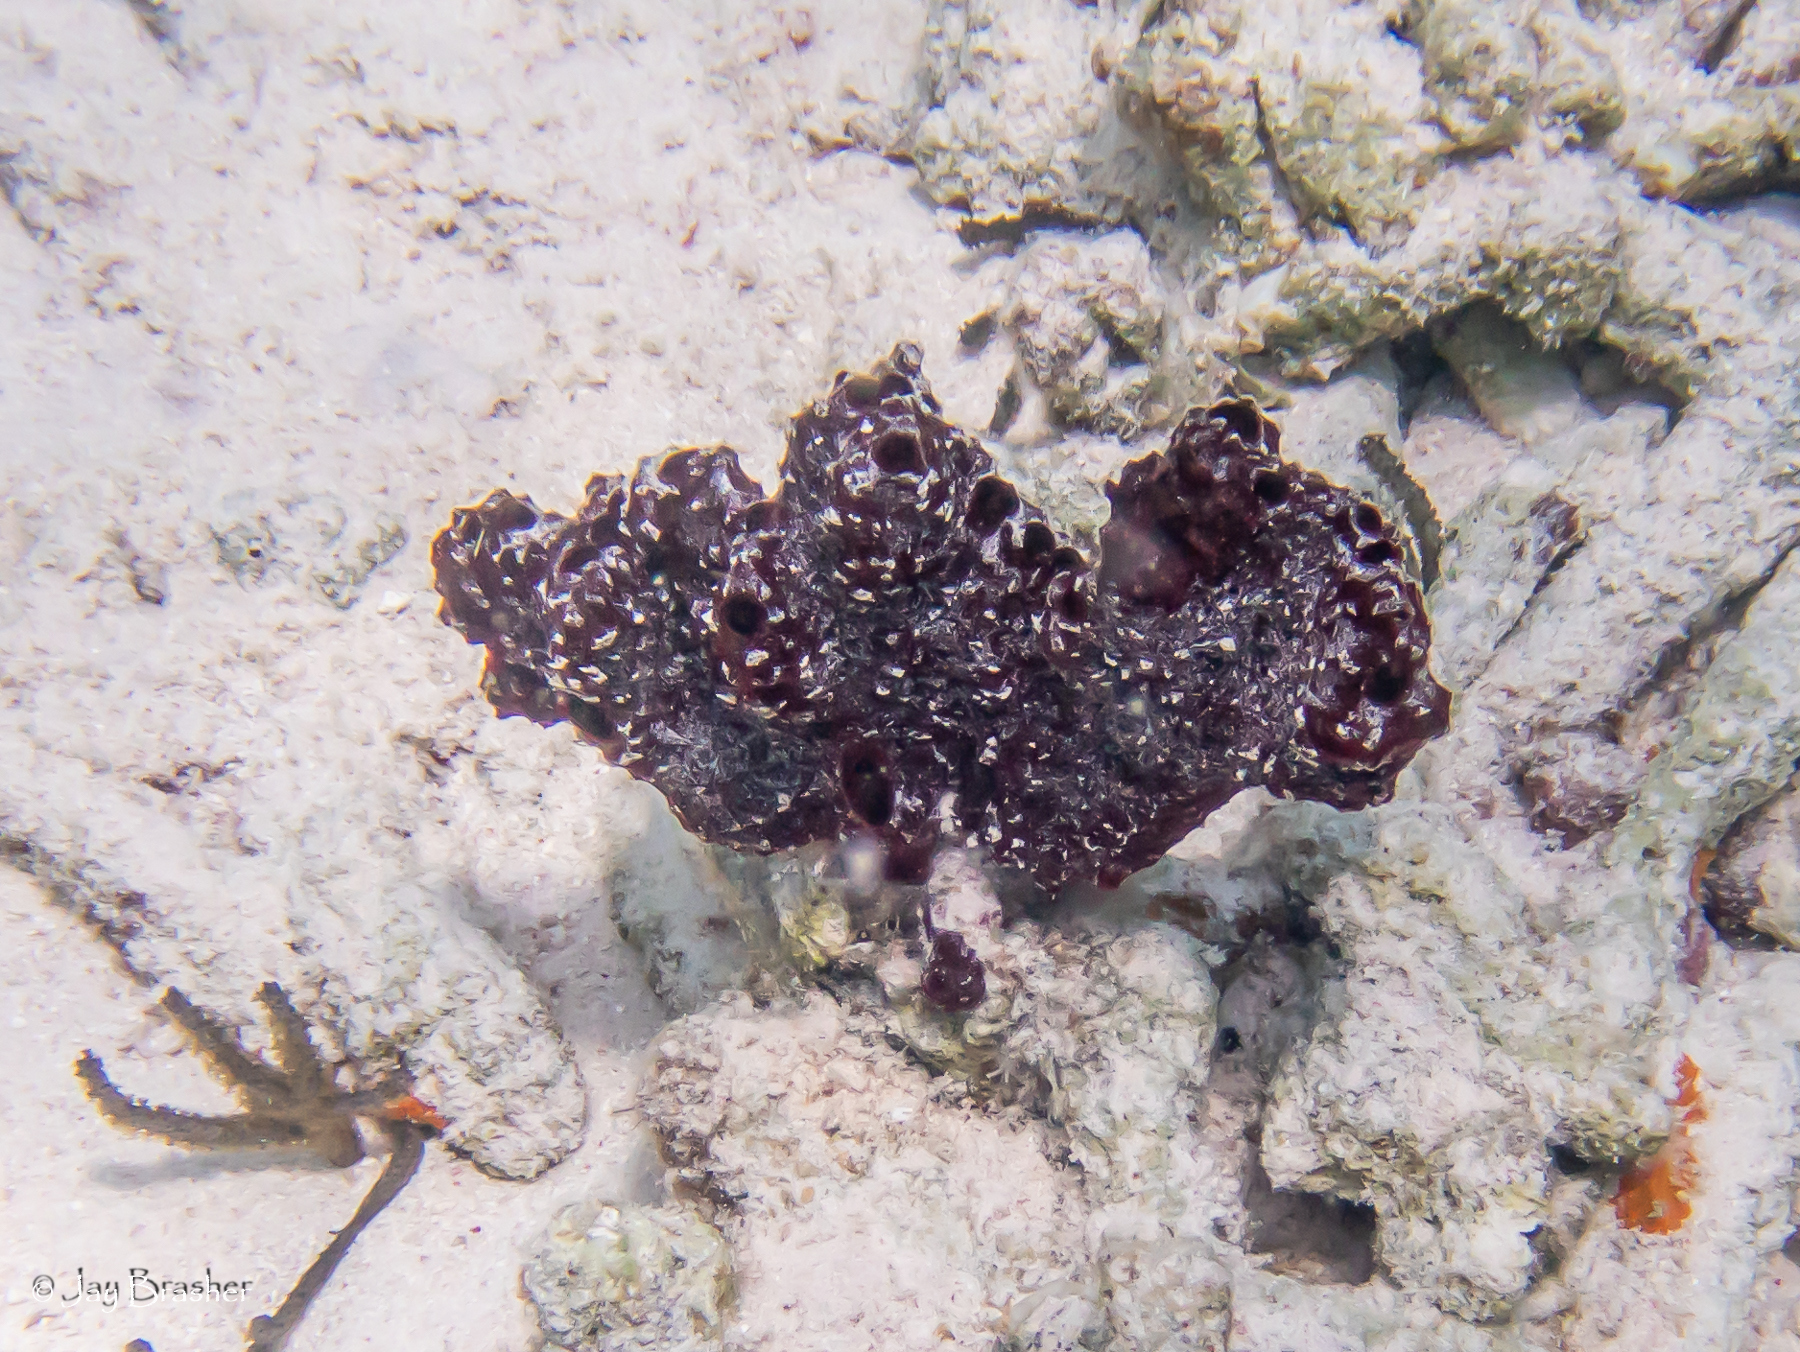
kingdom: Animalia
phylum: Porifera
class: Demospongiae
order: Poecilosclerida
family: Microcionidae
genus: Pandaros
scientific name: Pandaros acanthifolium
